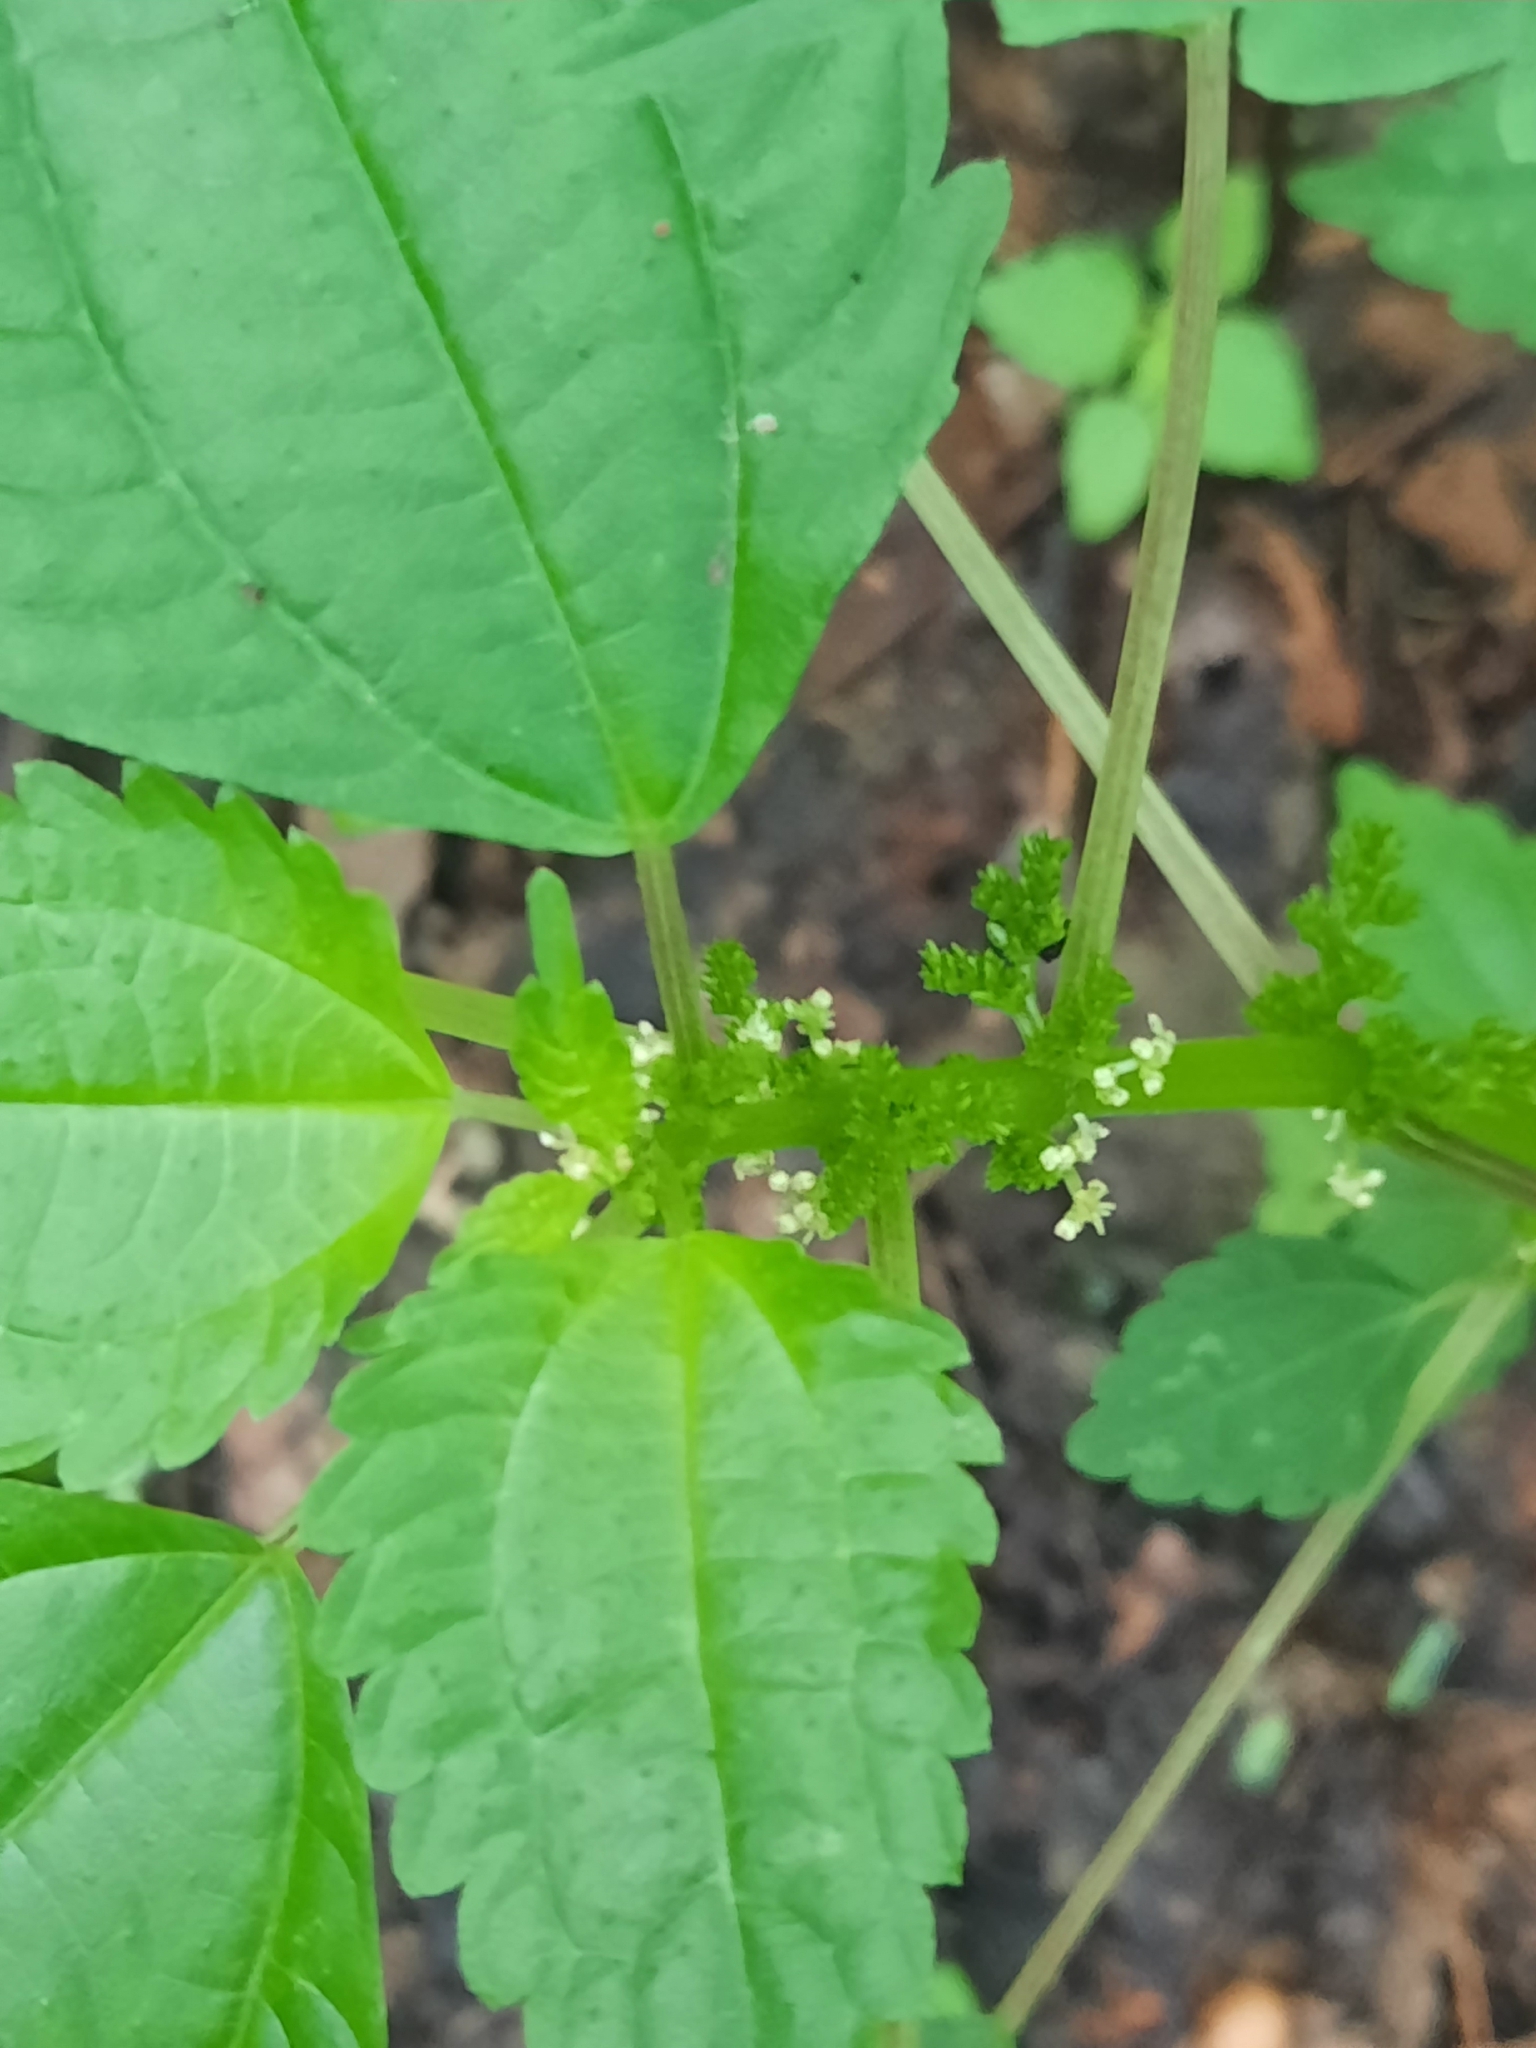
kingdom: Plantae
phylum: Tracheophyta
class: Magnoliopsida
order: Rosales
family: Urticaceae
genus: Pilea
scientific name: Pilea pumila
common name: Clearweed
